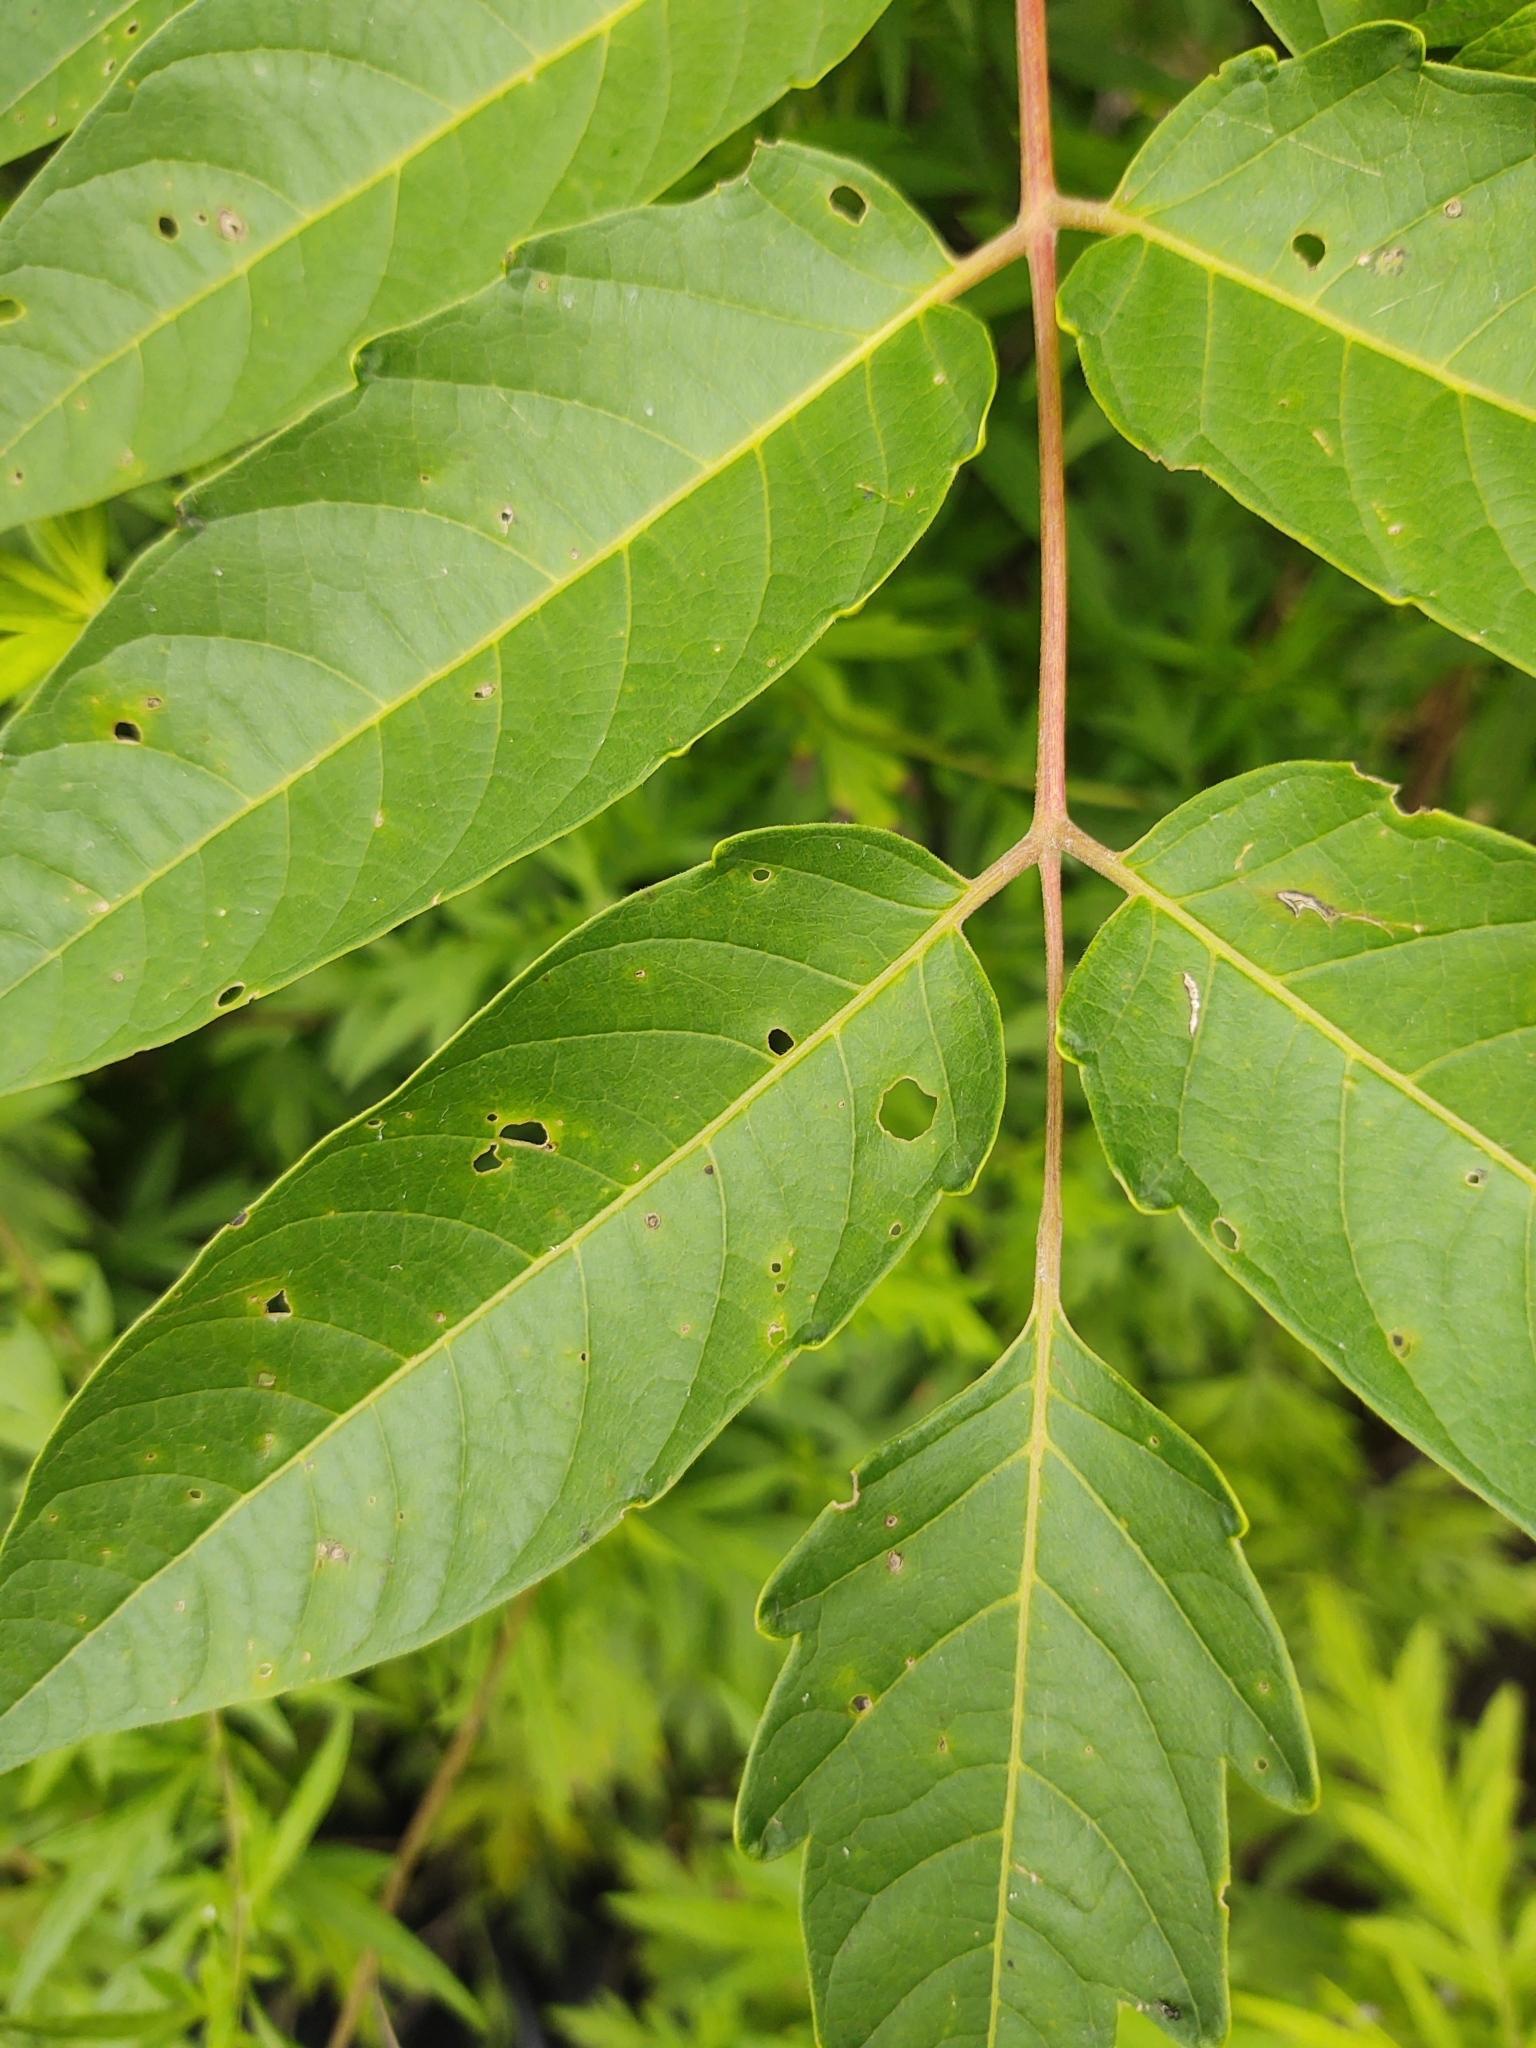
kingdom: Plantae
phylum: Tracheophyta
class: Magnoliopsida
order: Sapindales
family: Simaroubaceae
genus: Ailanthus
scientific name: Ailanthus altissima
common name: Tree-of-heaven
